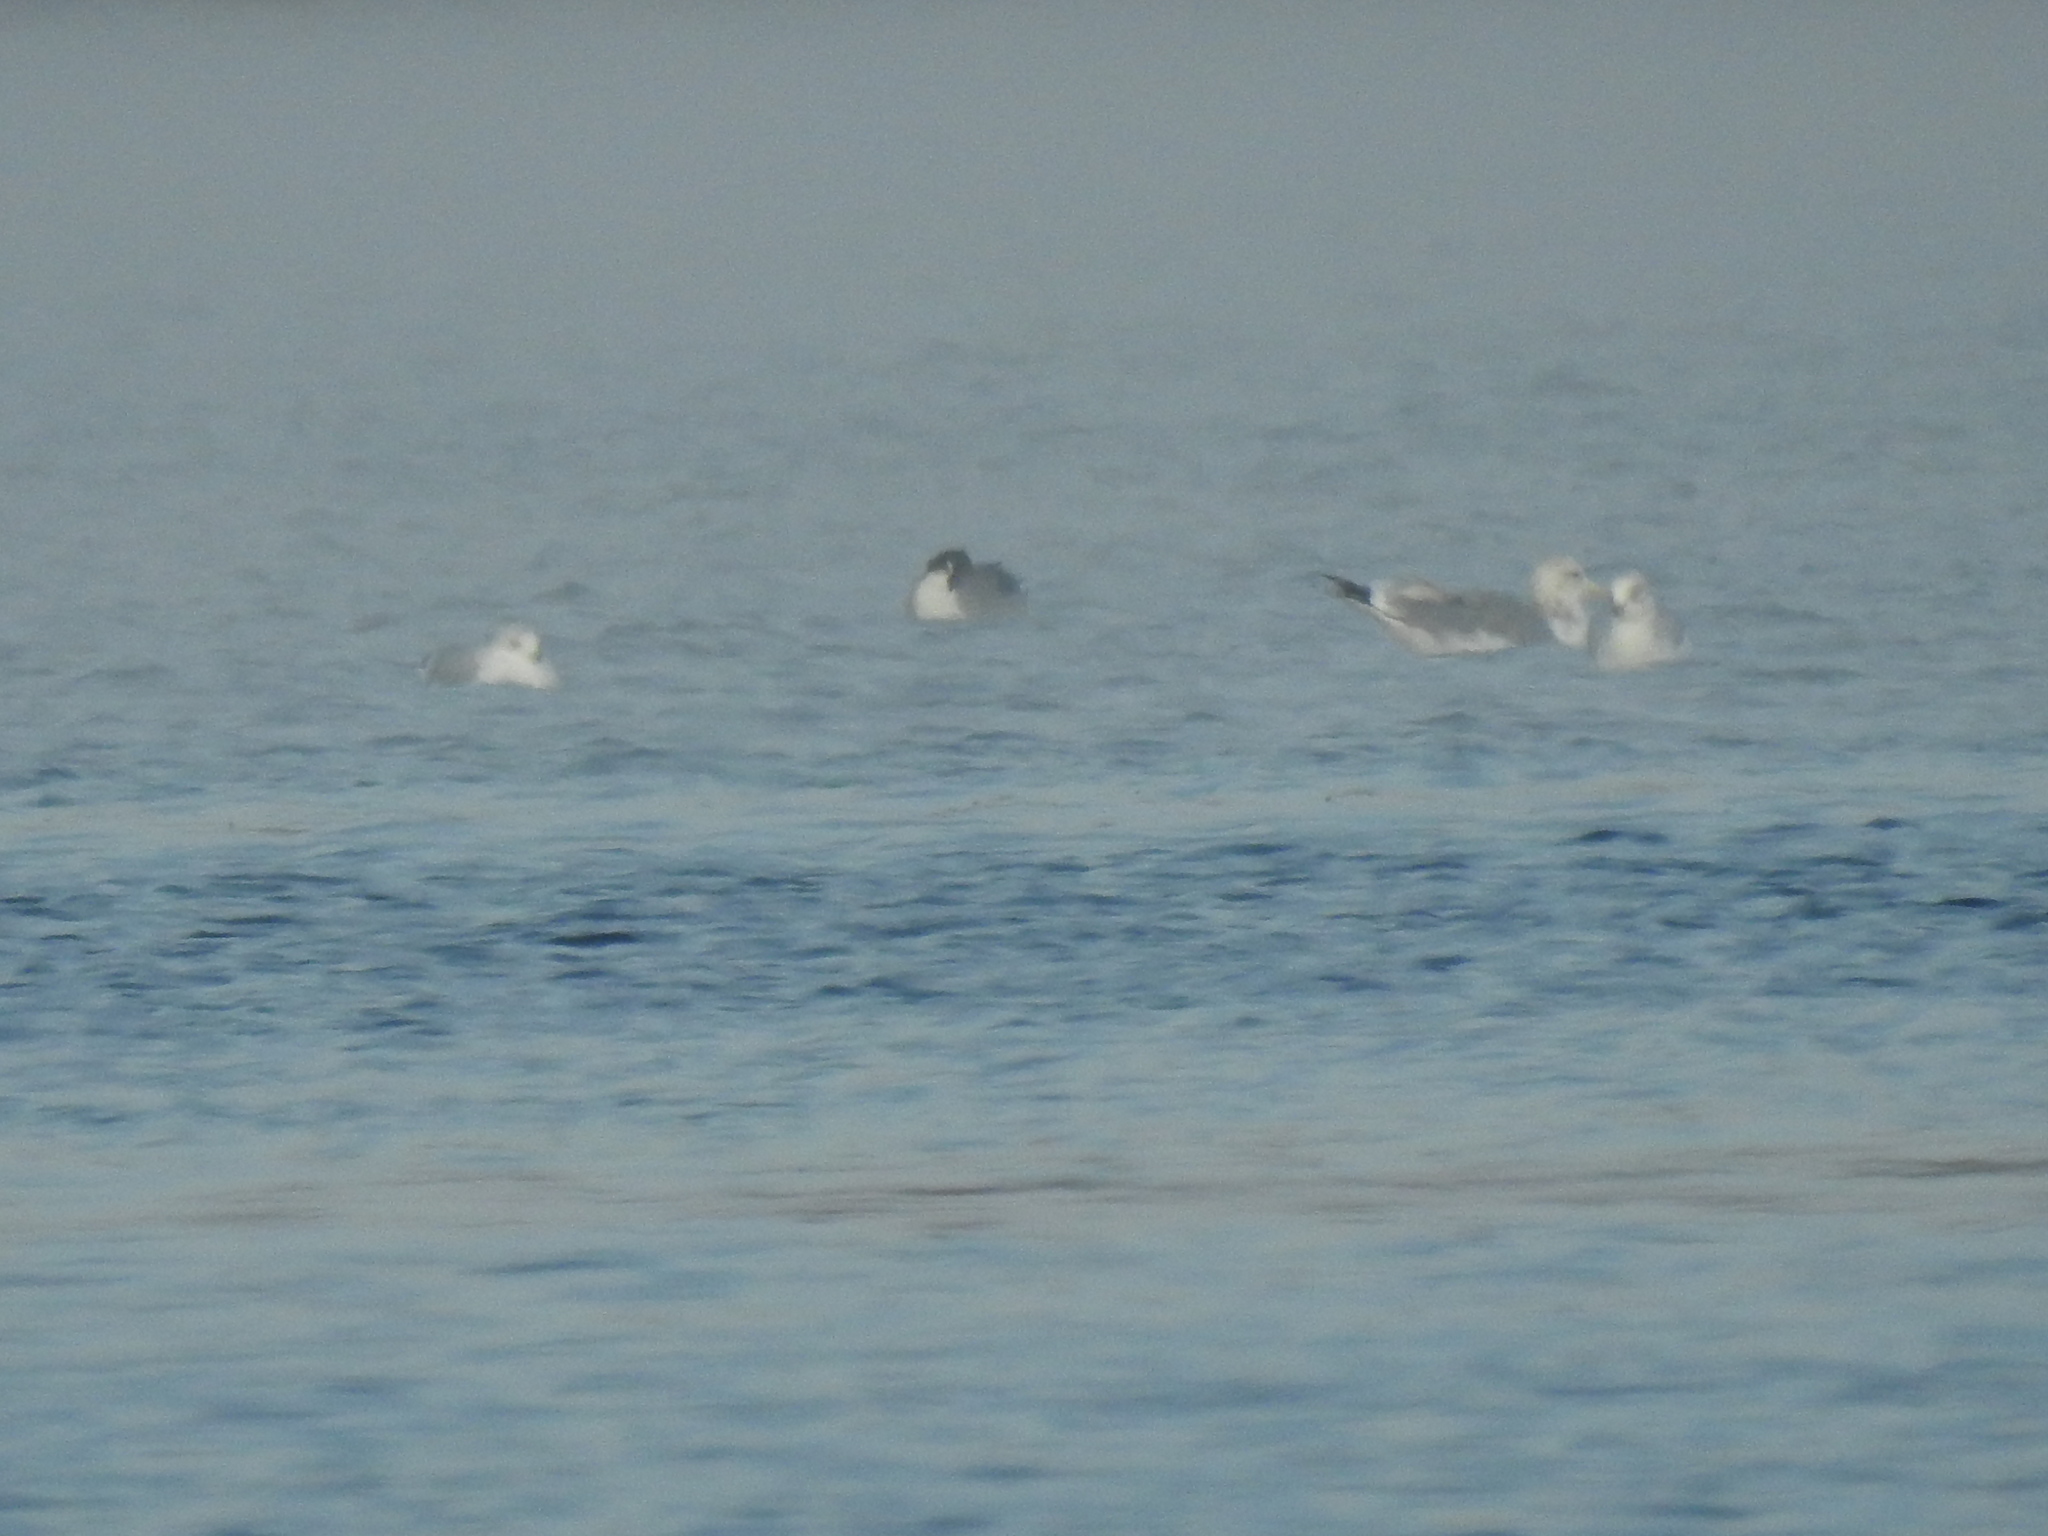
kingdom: Animalia
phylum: Chordata
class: Aves
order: Charadriiformes
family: Laridae
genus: Larus
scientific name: Larus californicus
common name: California gull
